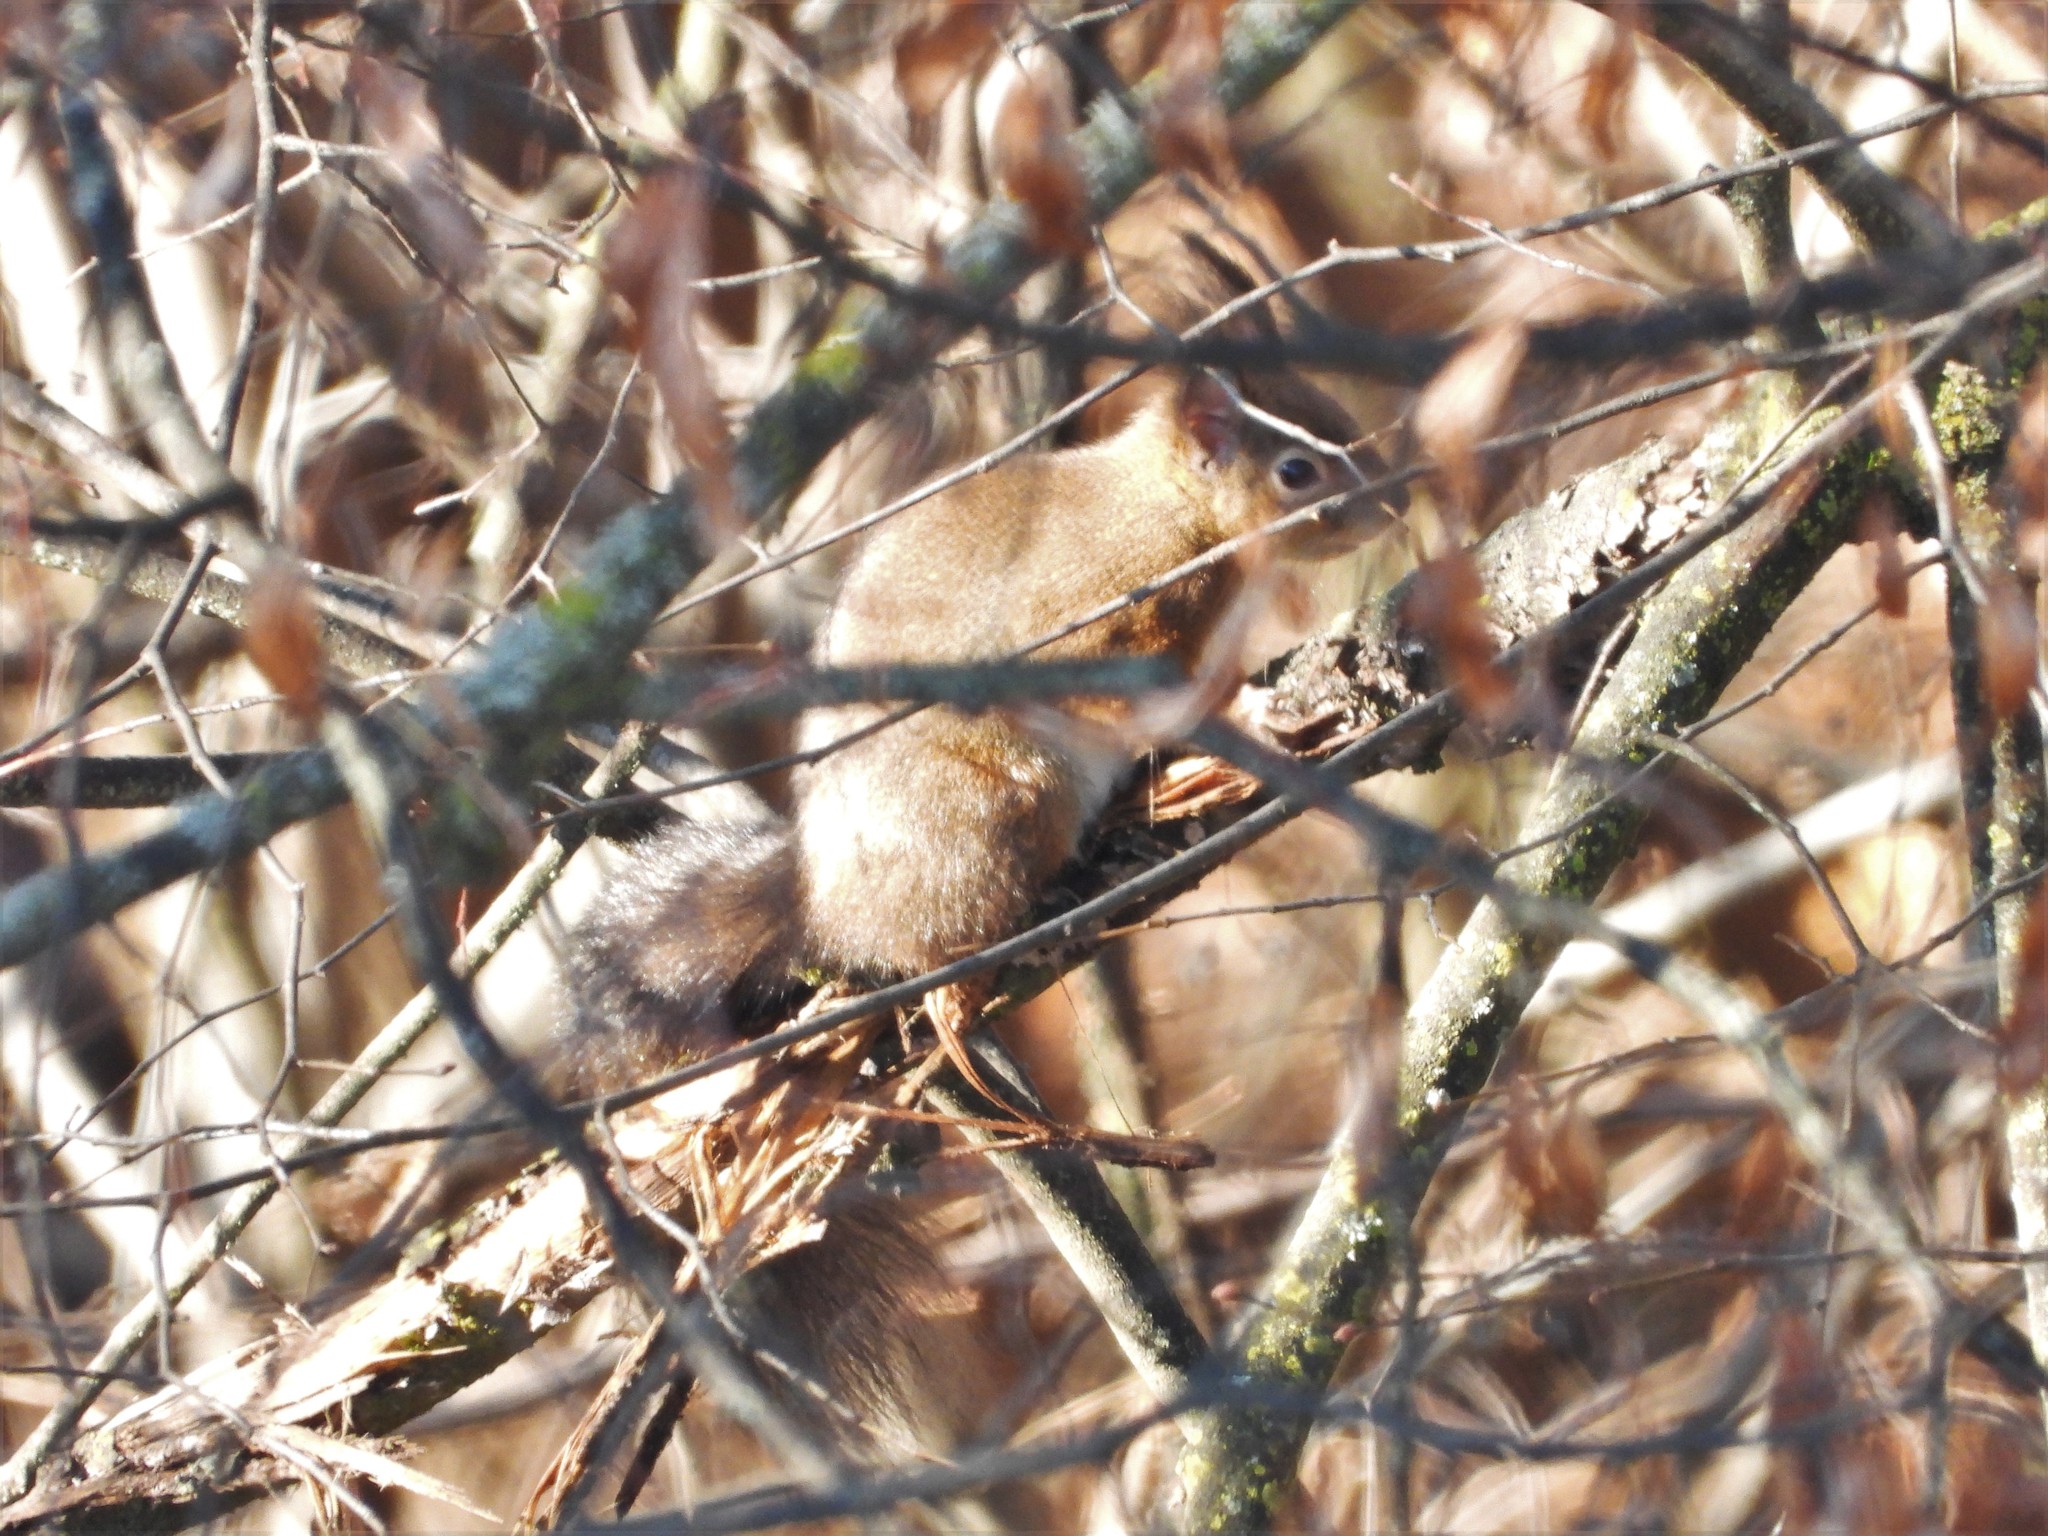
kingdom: Animalia
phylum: Chordata
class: Mammalia
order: Rodentia
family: Sciuridae
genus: Sciurus
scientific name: Sciurus vulgaris
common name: Eurasian red squirrel
